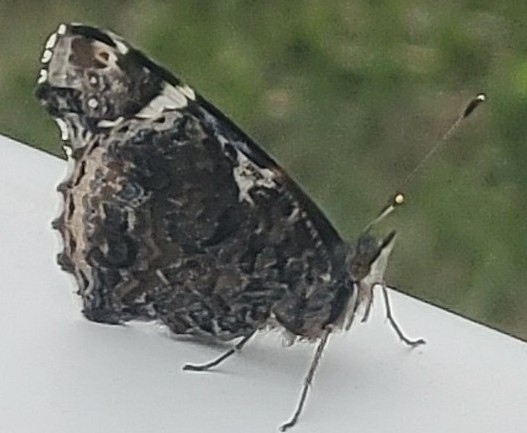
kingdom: Animalia
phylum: Arthropoda
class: Insecta
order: Lepidoptera
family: Nymphalidae
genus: Vanessa
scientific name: Vanessa atalanta
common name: Red admiral
